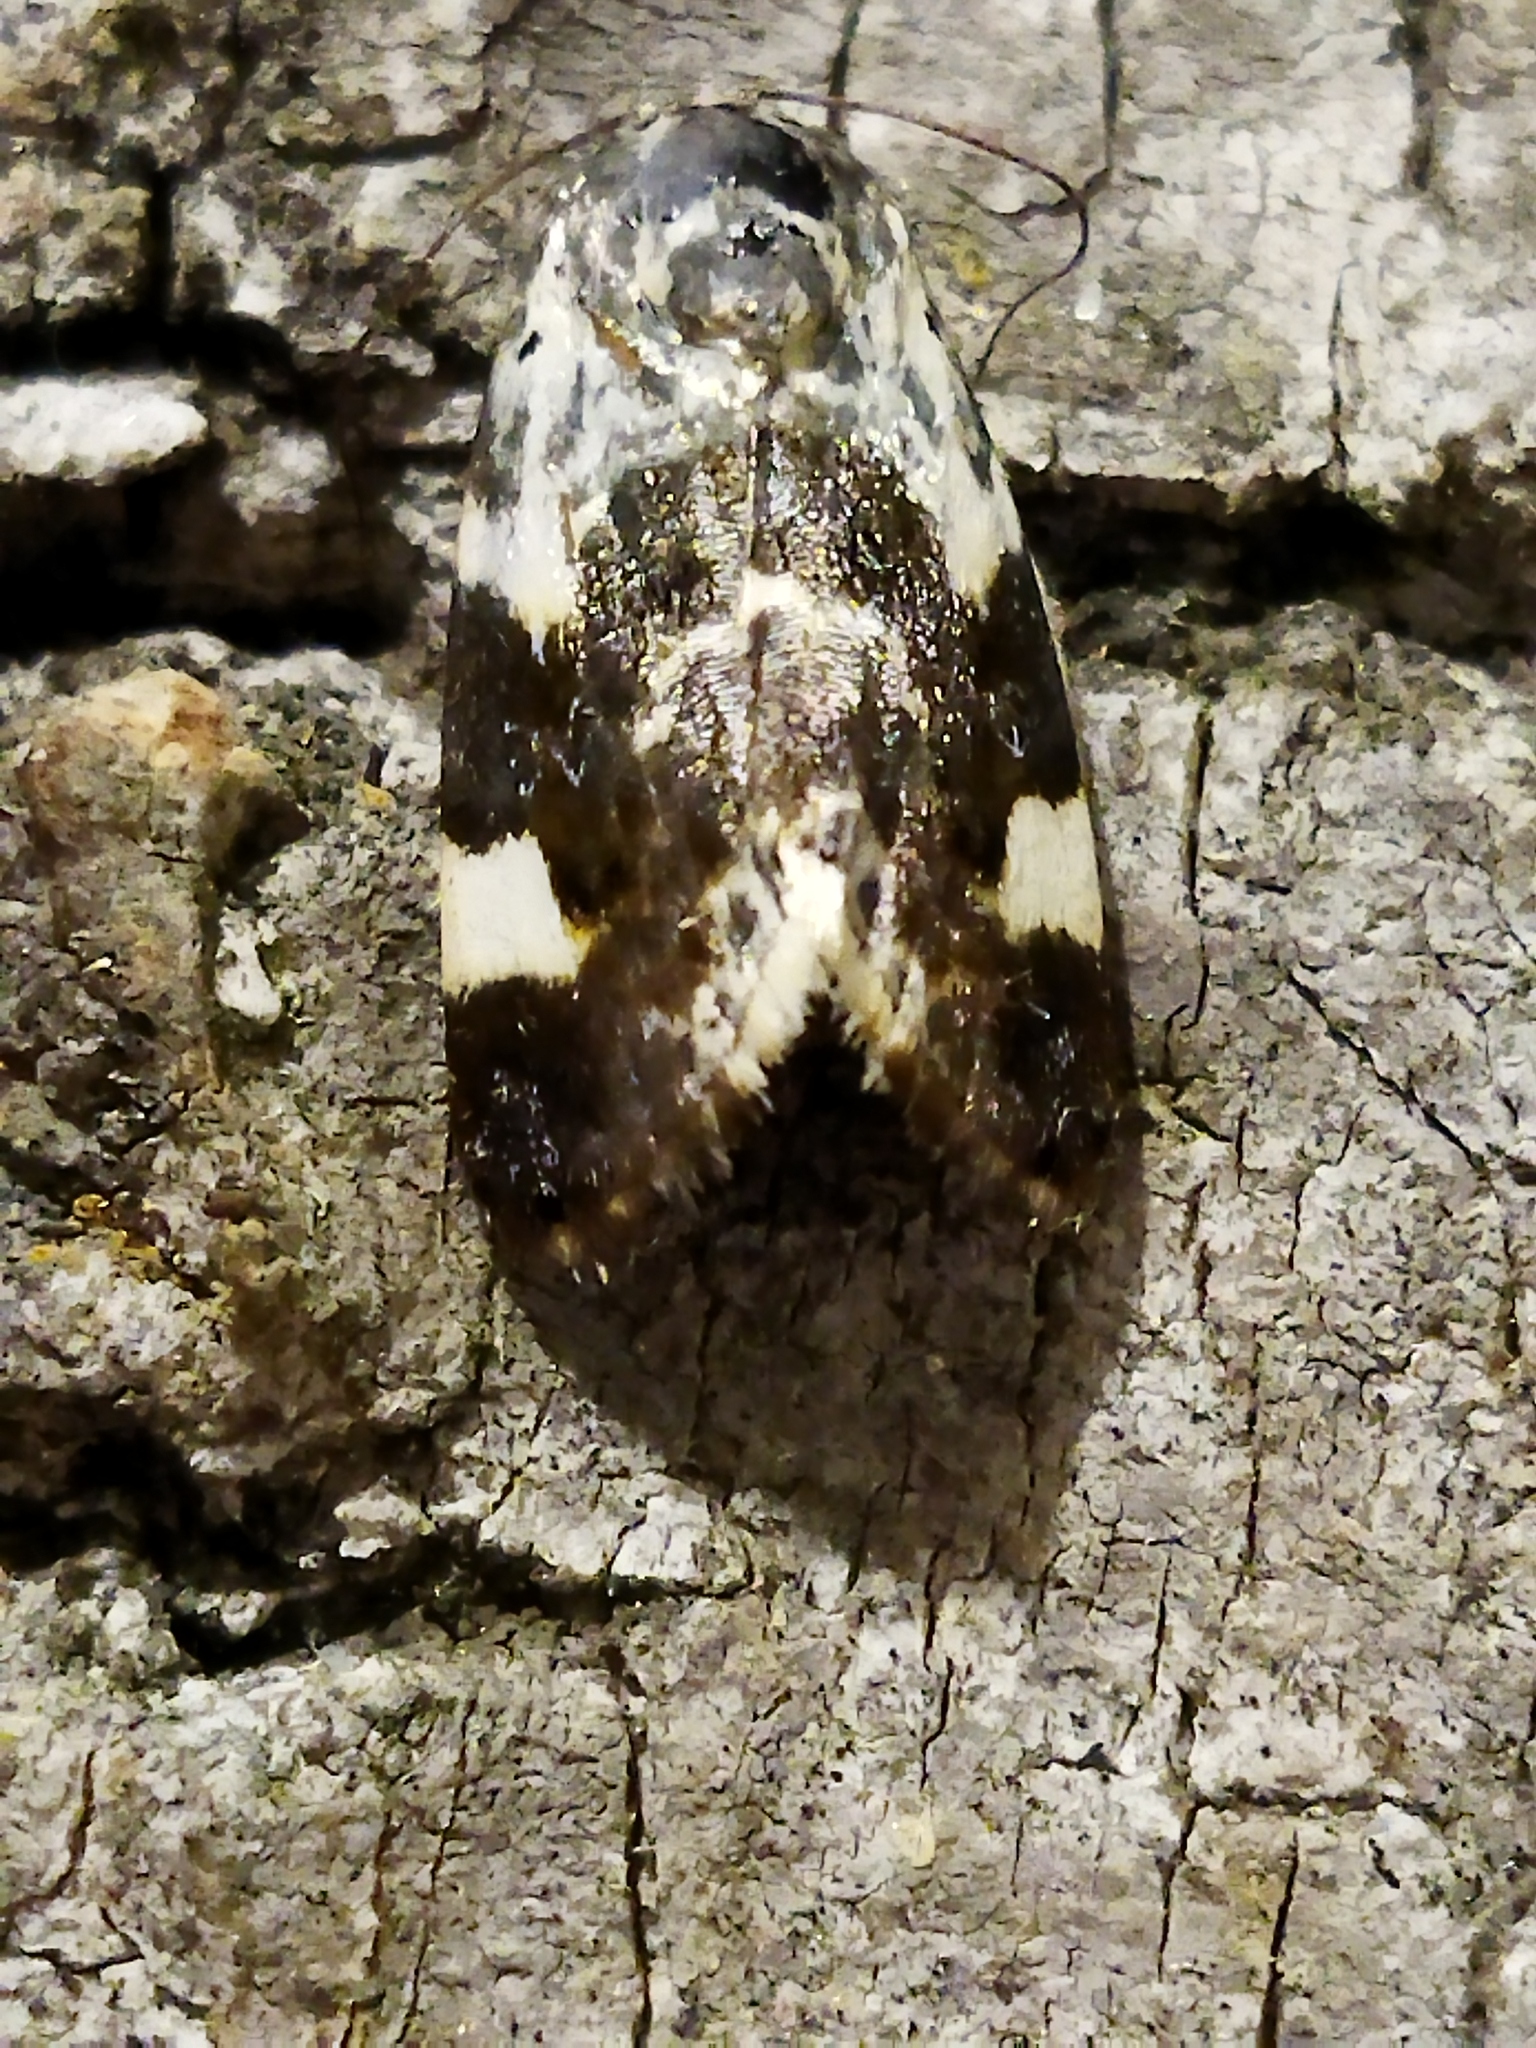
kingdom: Animalia
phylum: Arthropoda
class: Insecta
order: Lepidoptera
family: Noctuidae
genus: Acontia
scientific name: Acontia lucida
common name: Pale shoulder
